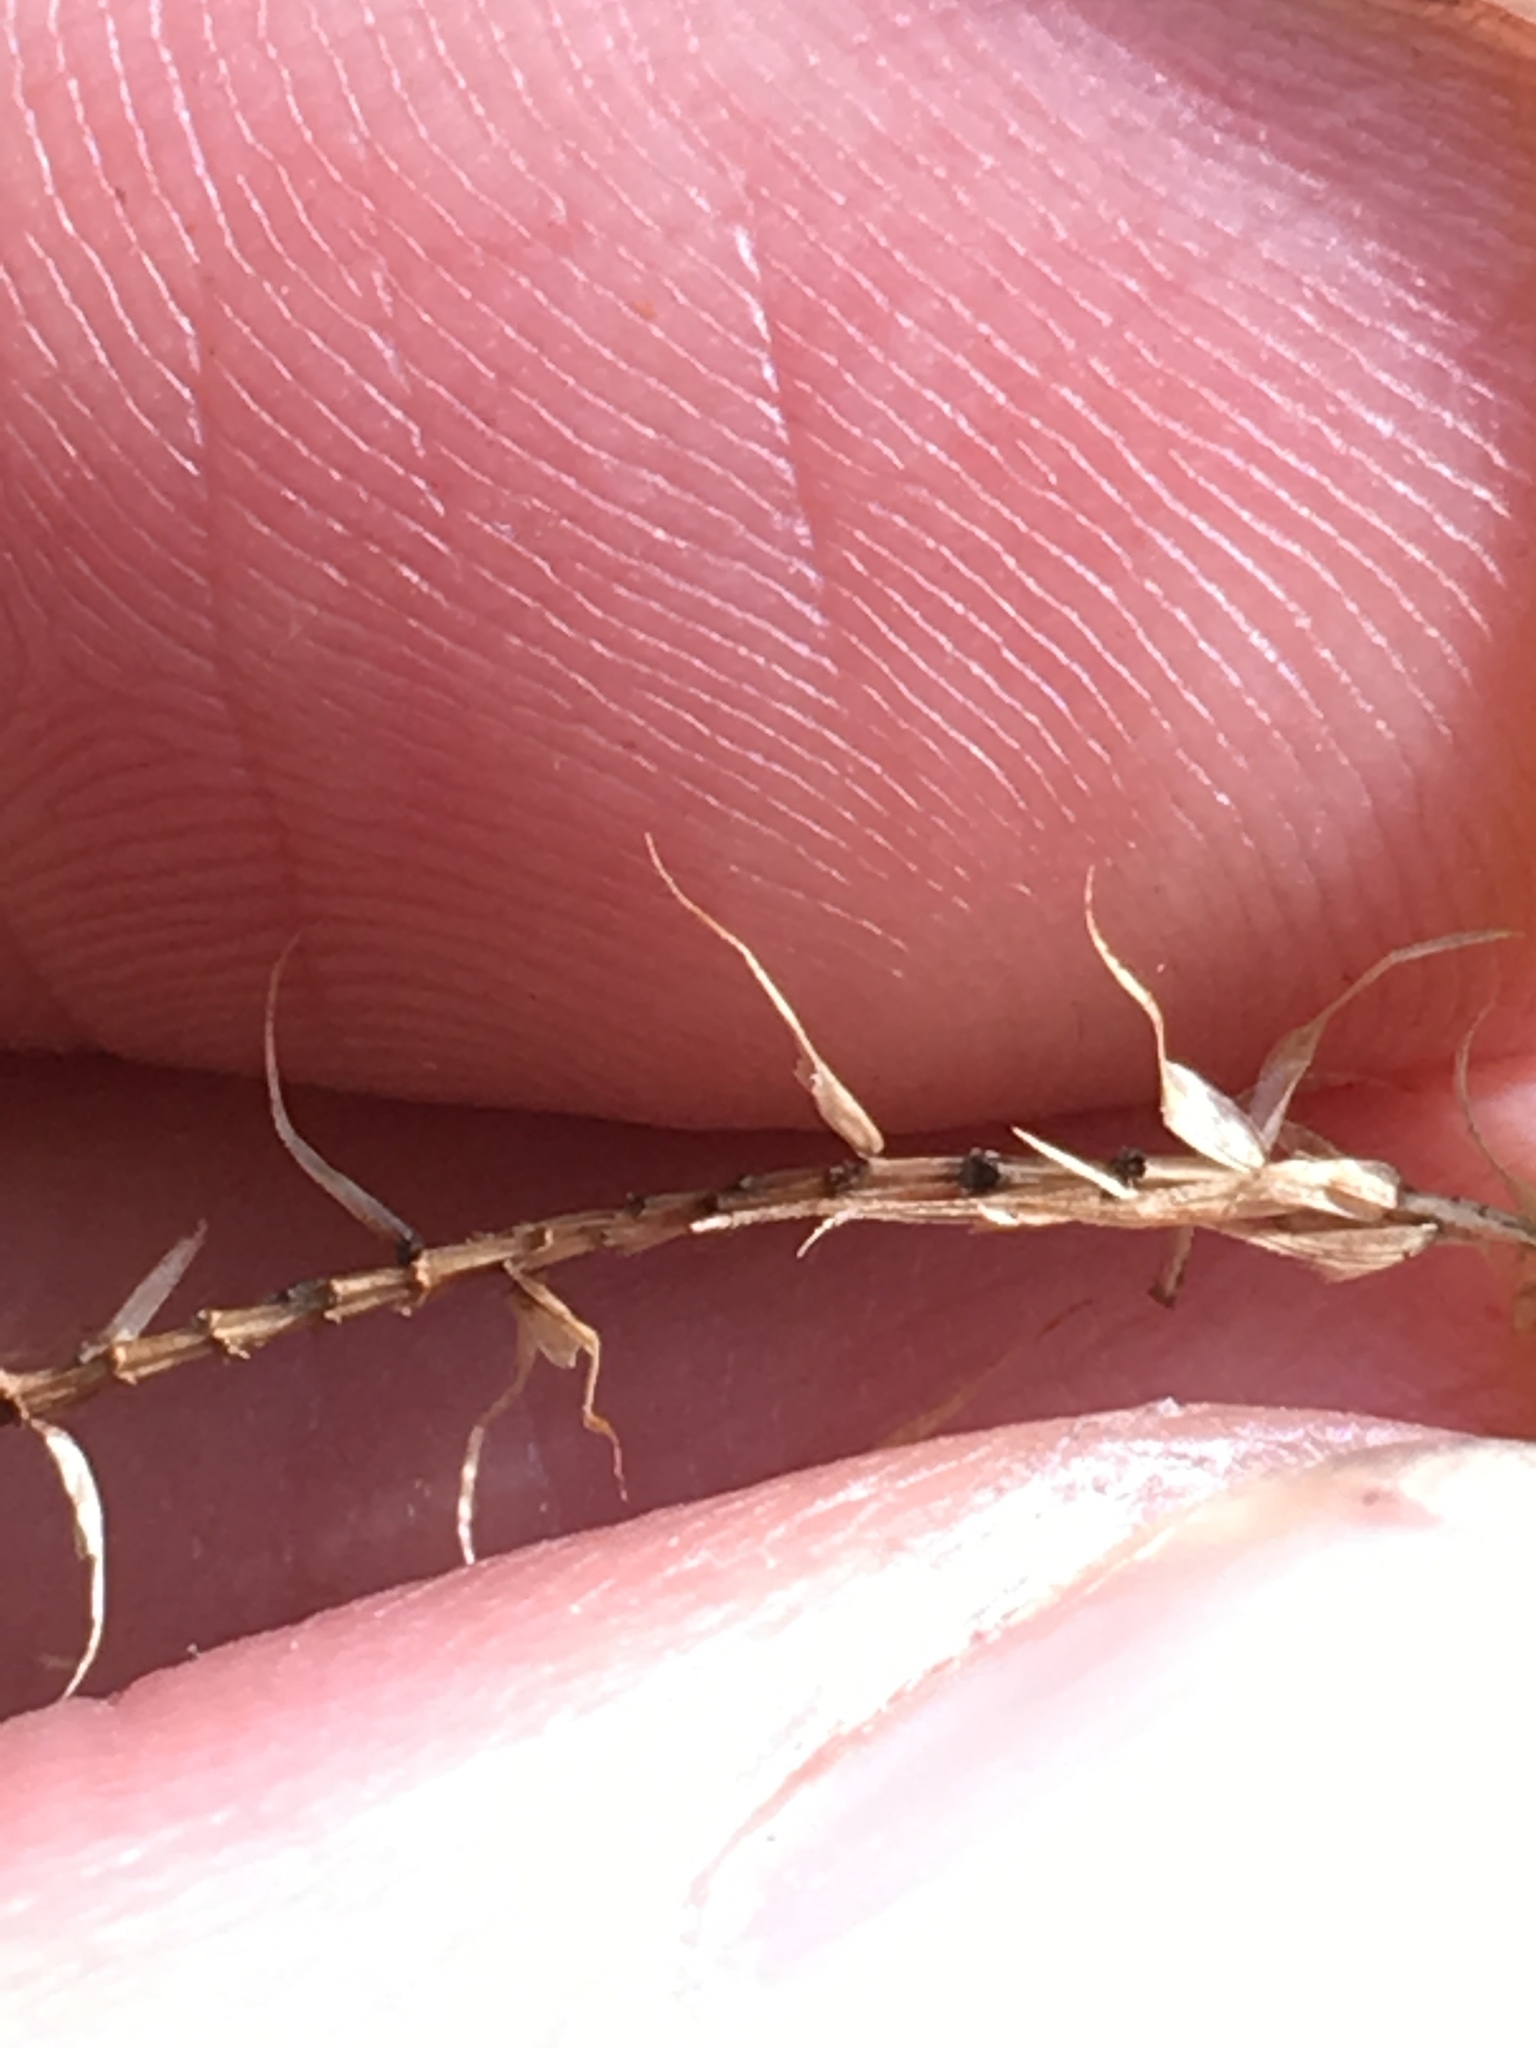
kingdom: Plantae
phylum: Tracheophyta
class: Liliopsida
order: Poales
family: Cyperaceae
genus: Carex
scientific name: Carex lurida
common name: Sallow sedge
